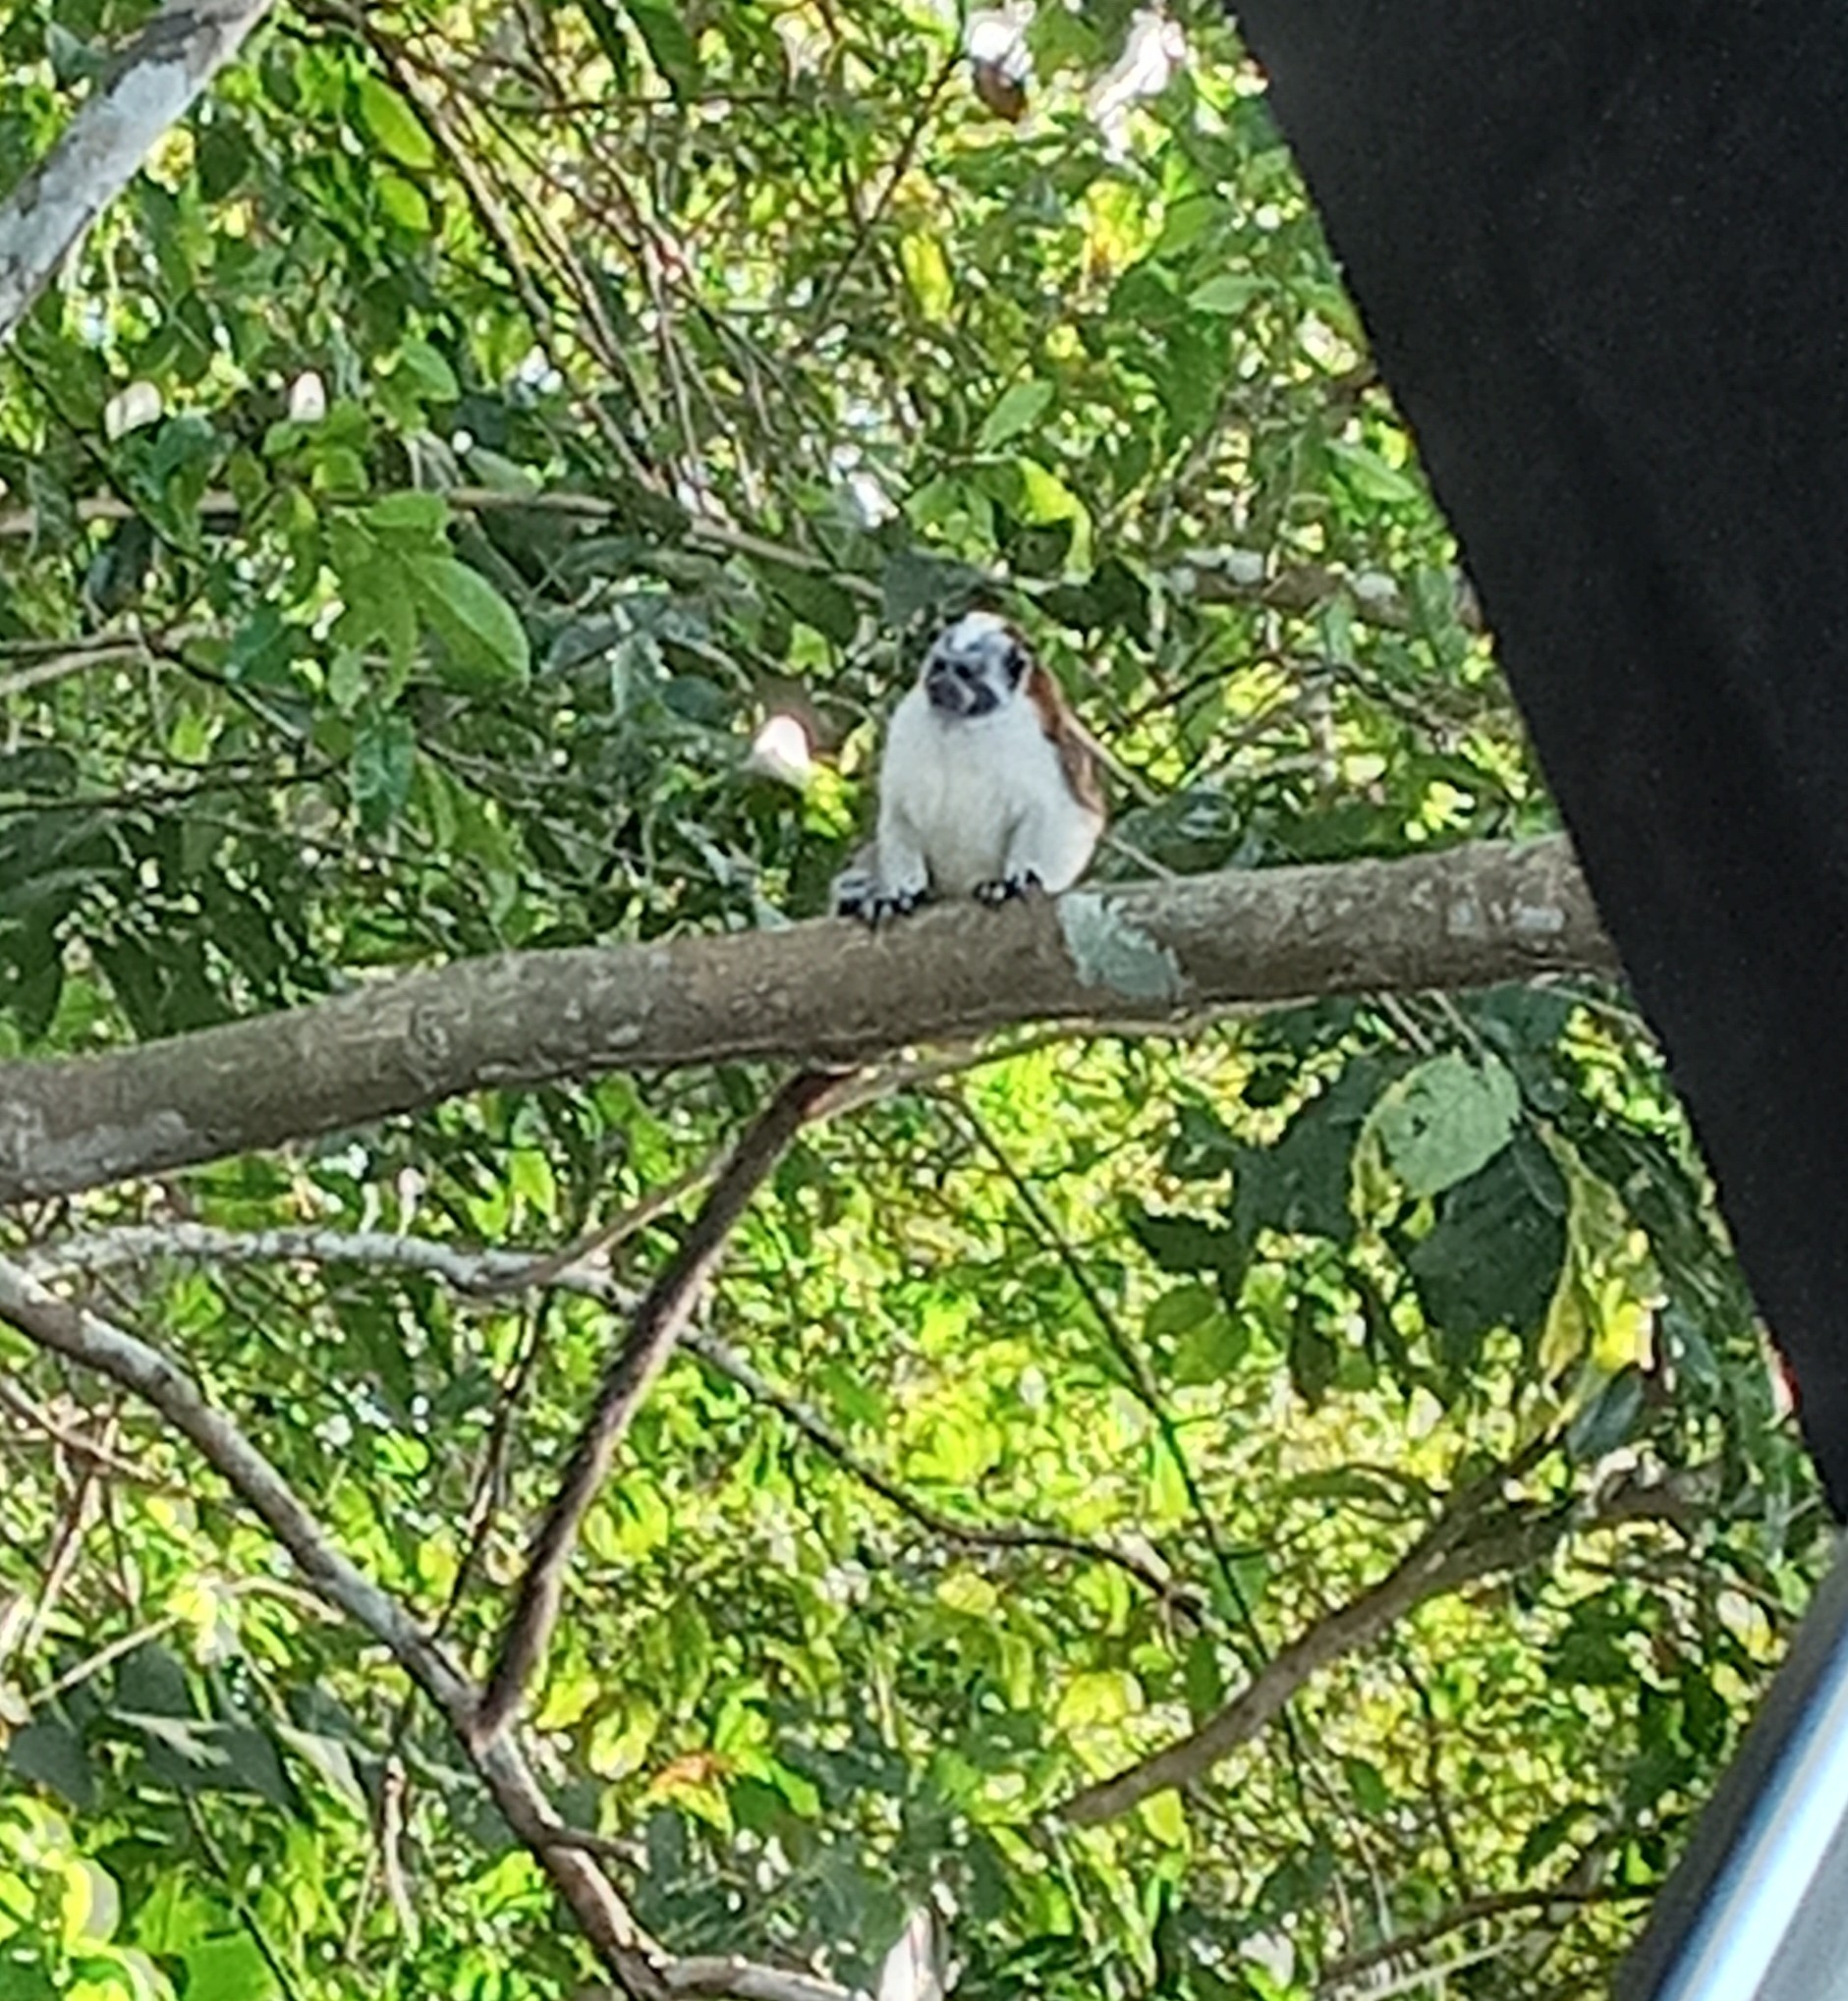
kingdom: Animalia
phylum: Chordata
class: Mammalia
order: Primates
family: Callitrichidae
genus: Saguinus
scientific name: Saguinus geoffroyi
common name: Geoffroy s tamarin
